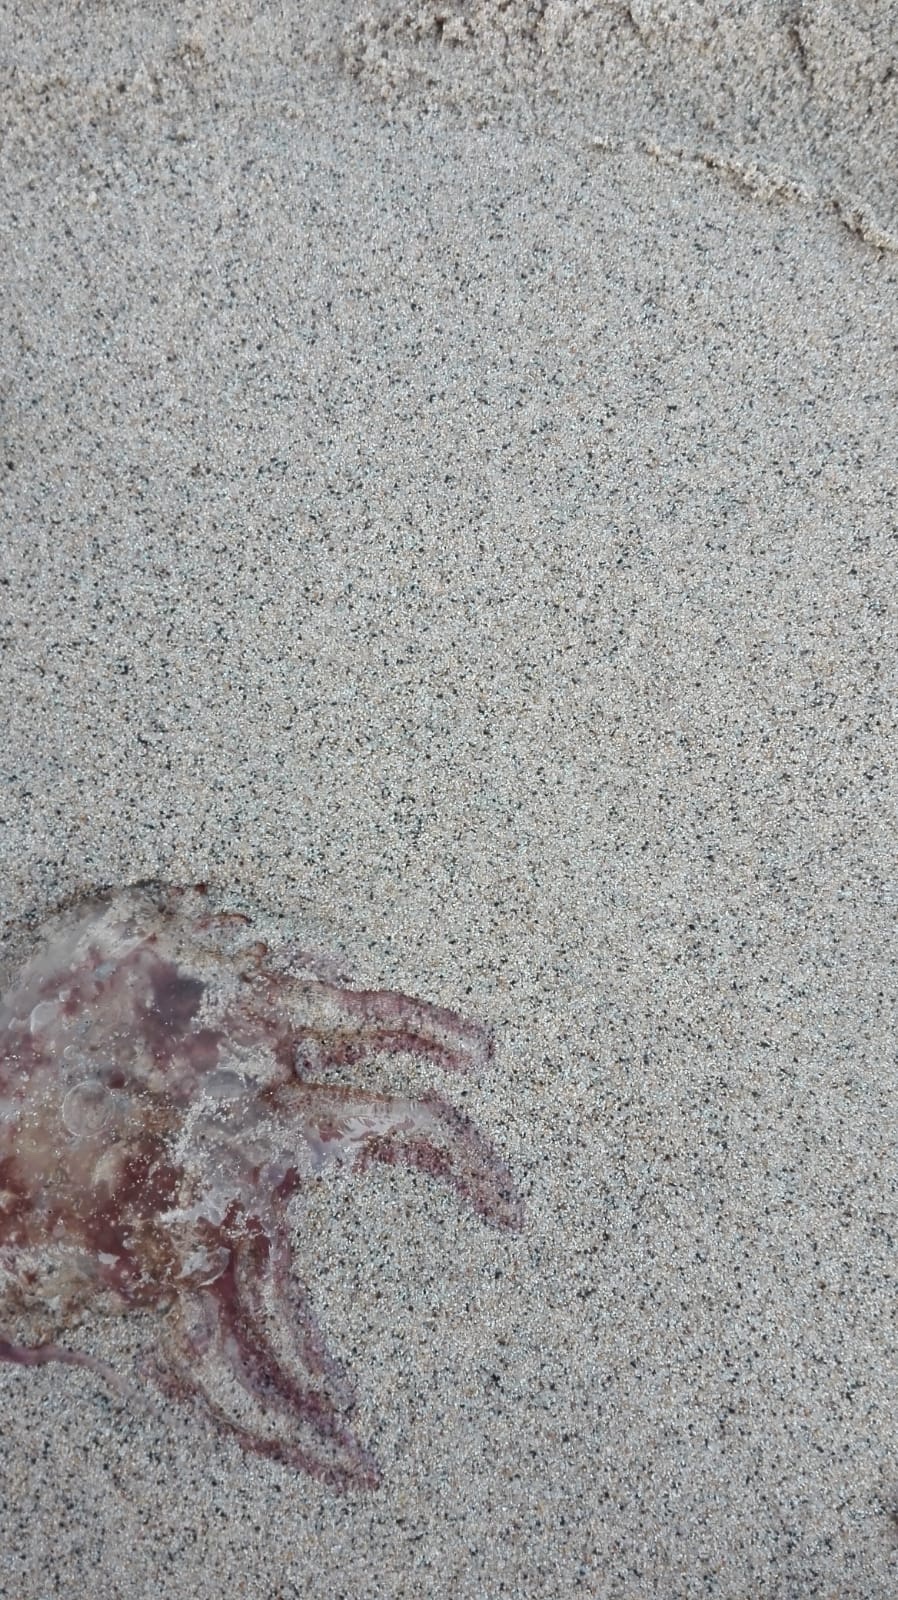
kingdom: Animalia
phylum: Cnidaria
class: Scyphozoa
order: Semaeostomeae
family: Pelagiidae
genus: Pelagia
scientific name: Pelagia noctiluca
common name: Mauve stinger
